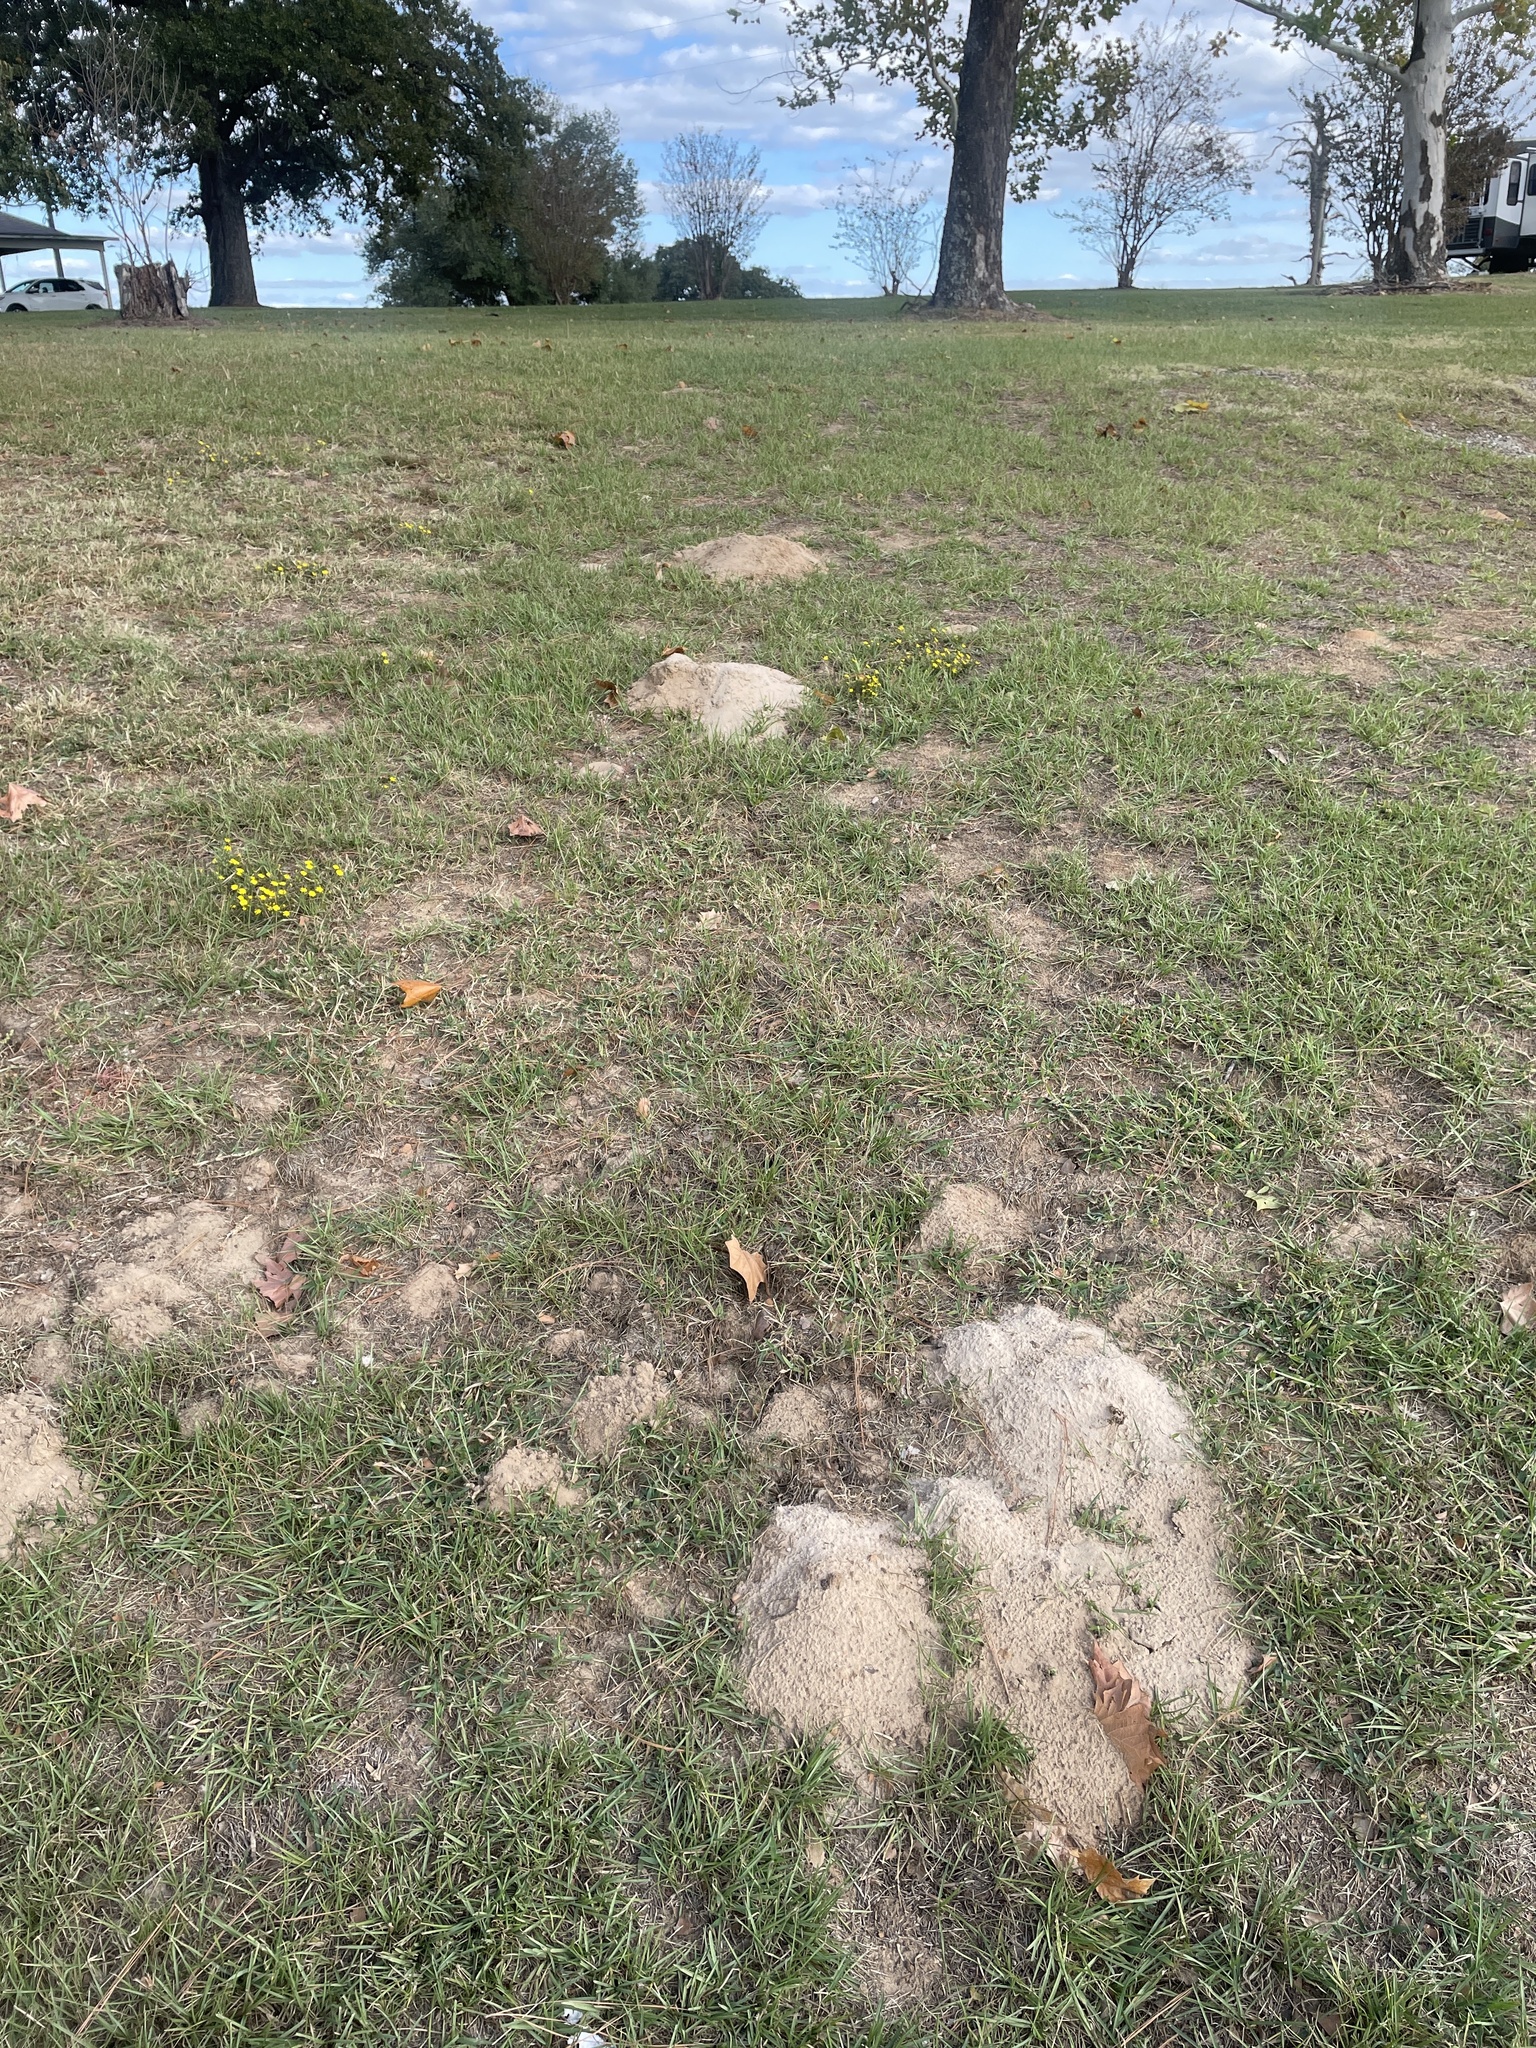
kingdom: Animalia
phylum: Chordata
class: Mammalia
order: Rodentia
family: Geomyidae
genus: Geomys
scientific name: Geomys breviceps
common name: Baird's pocket gopher
